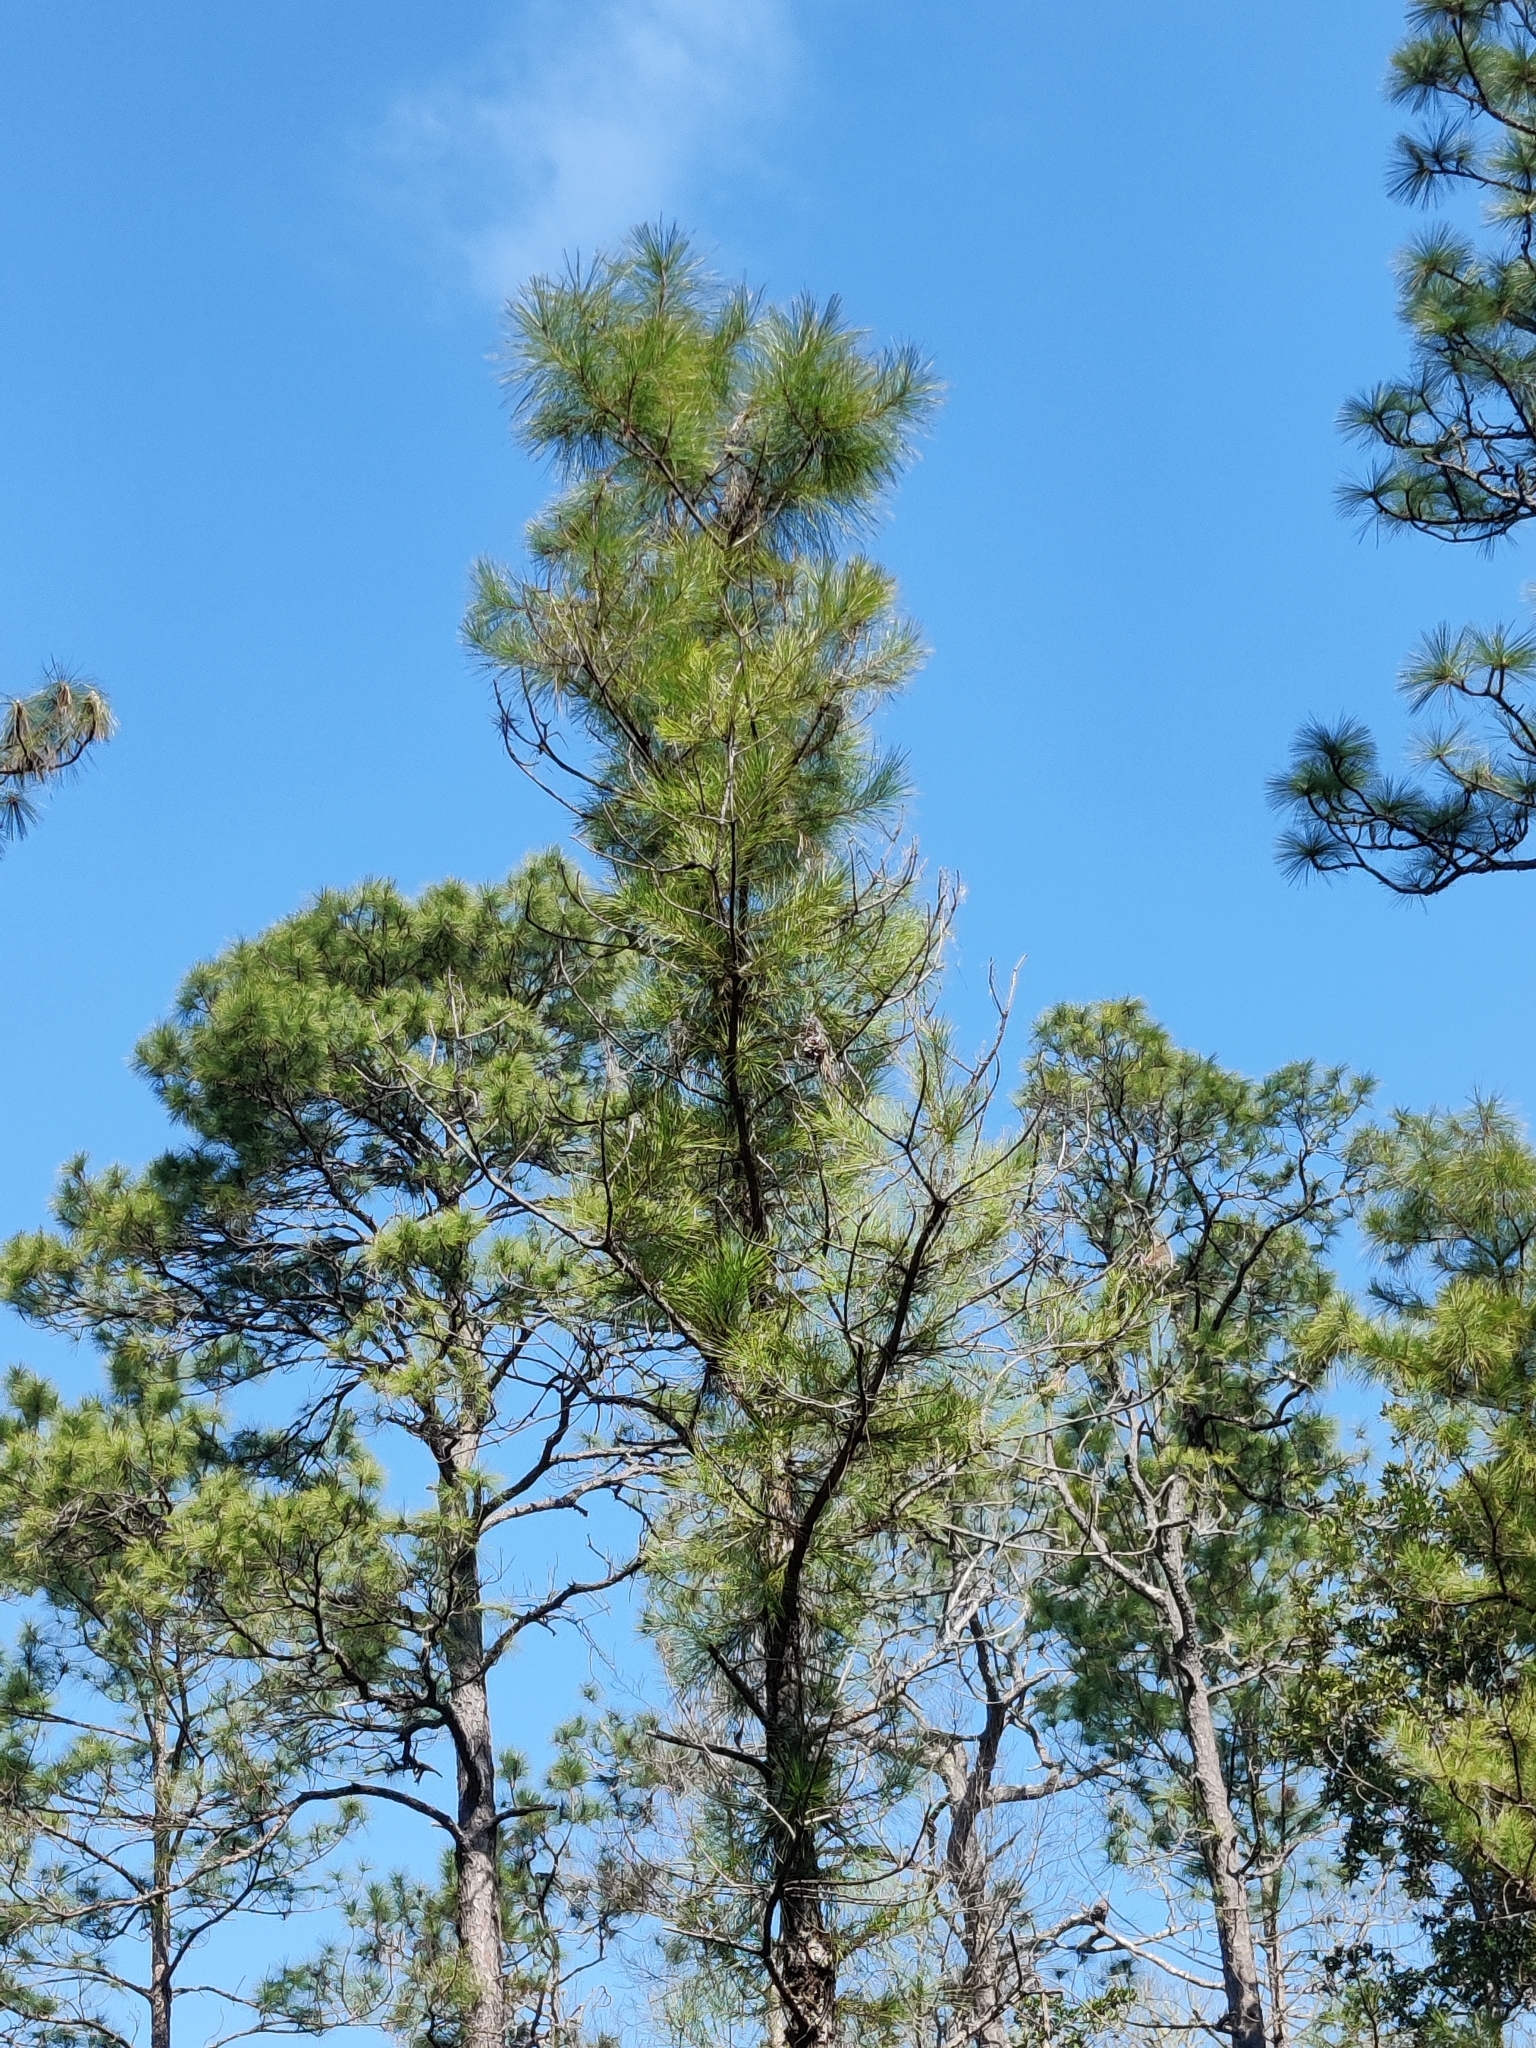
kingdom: Plantae
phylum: Tracheophyta
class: Pinopsida
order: Pinales
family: Pinaceae
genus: Pinus
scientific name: Pinus serotina
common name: Marsh pine
